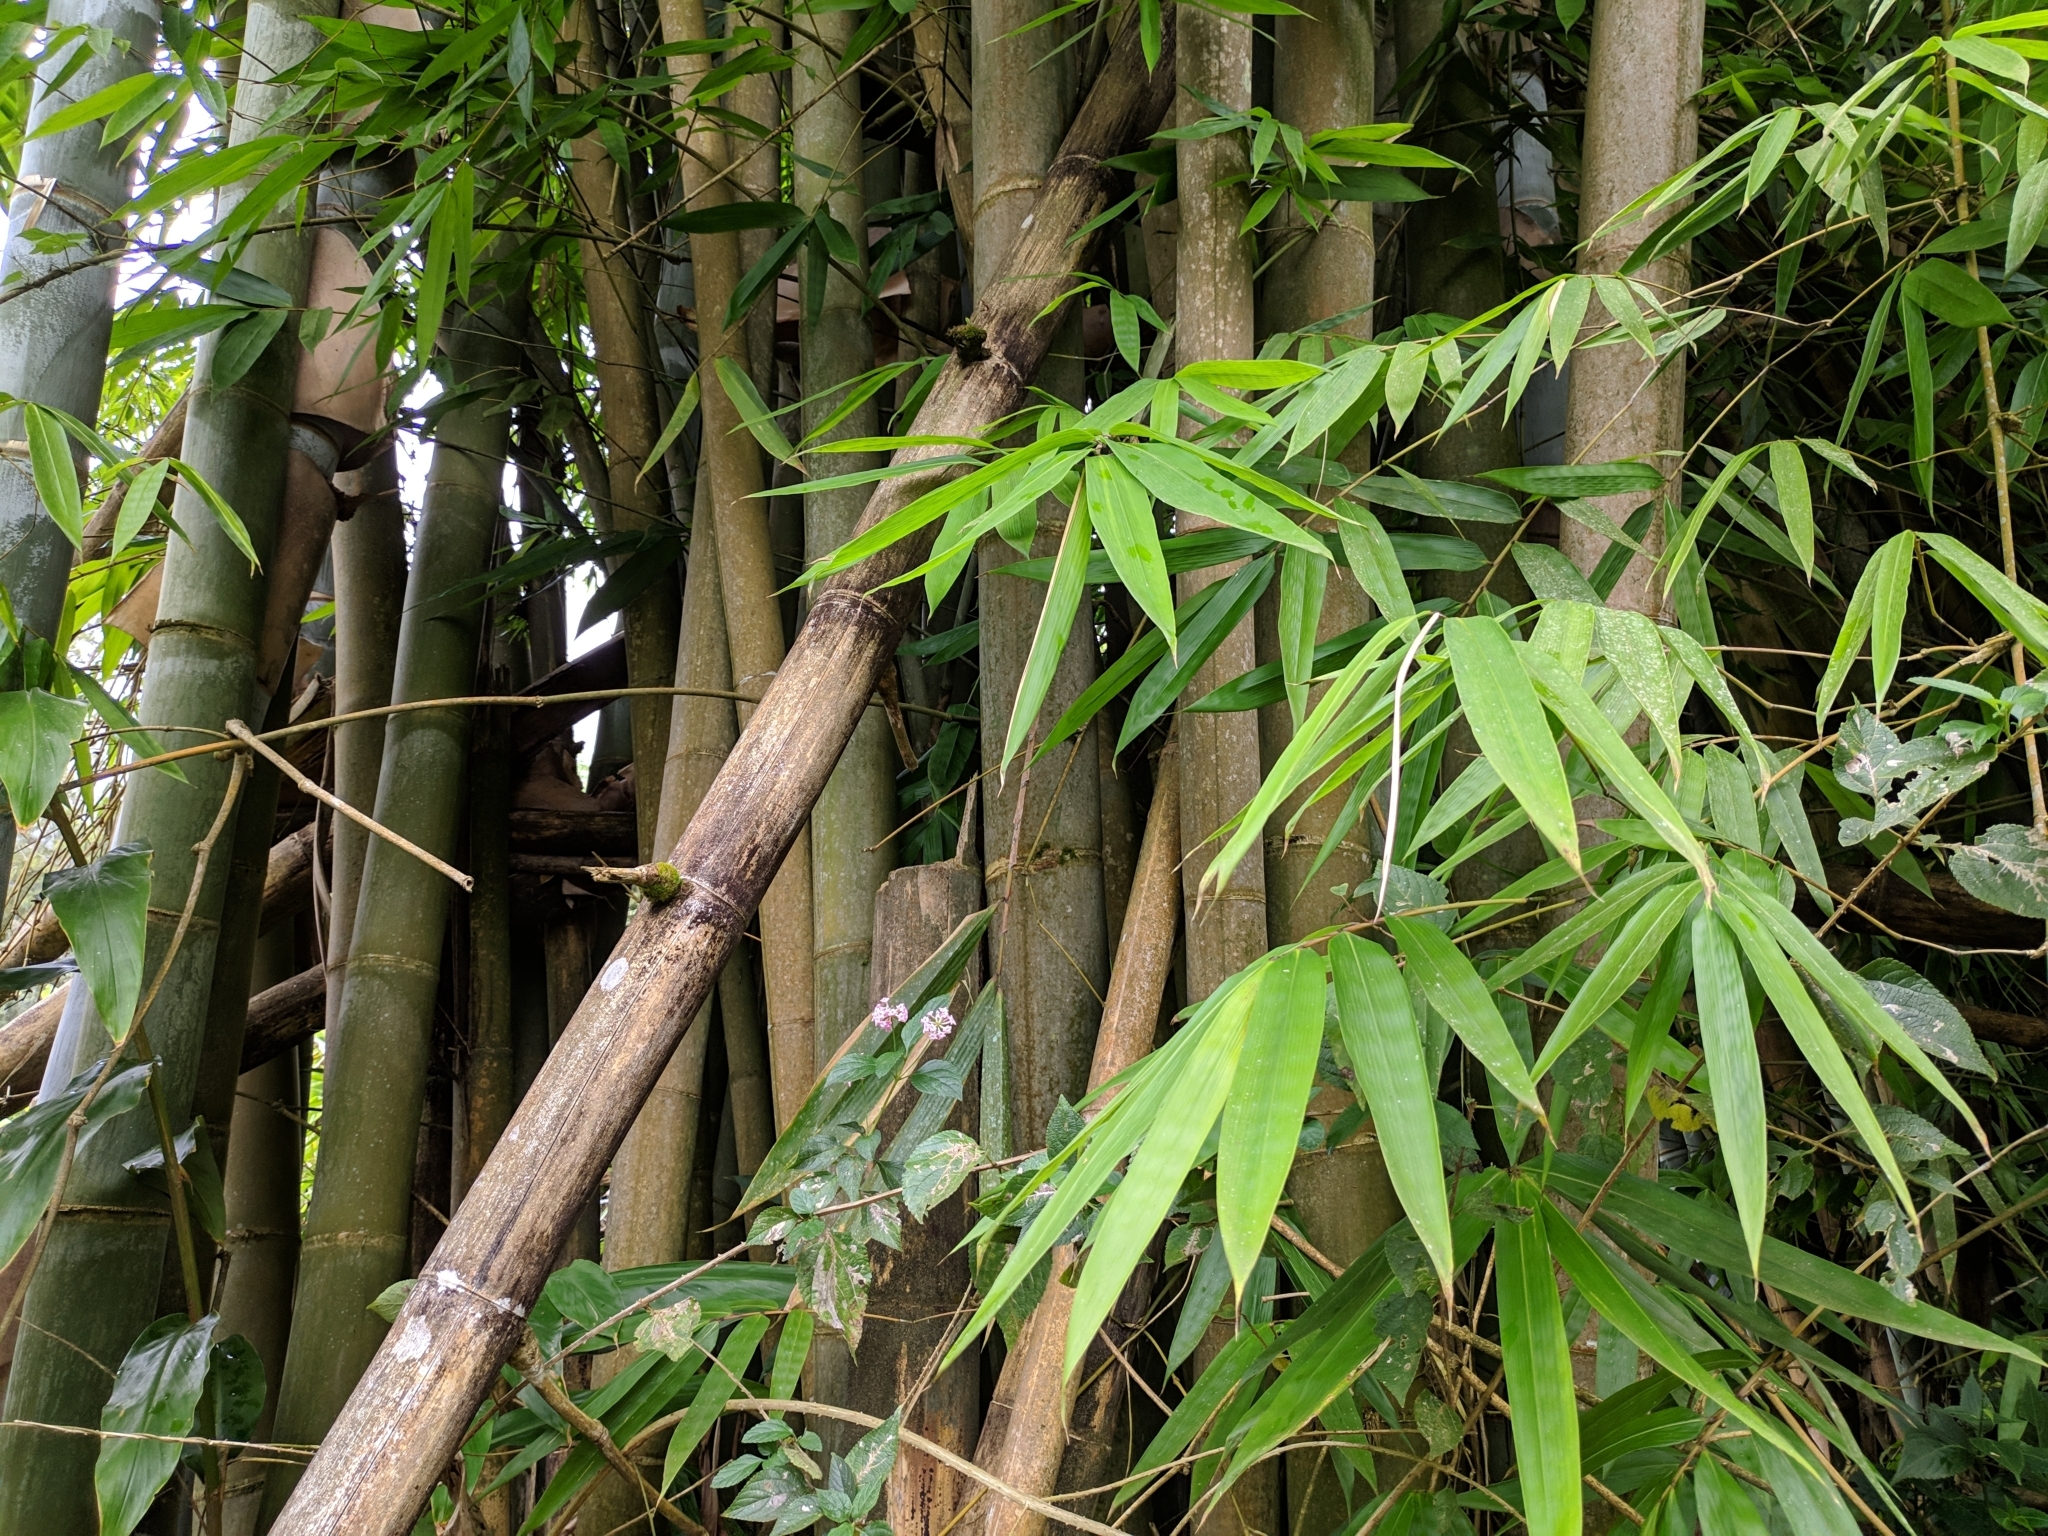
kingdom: Plantae
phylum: Tracheophyta
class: Liliopsida
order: Poales
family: Poaceae
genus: Bambusa
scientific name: Bambusa vulgaris
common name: Common bamboo
